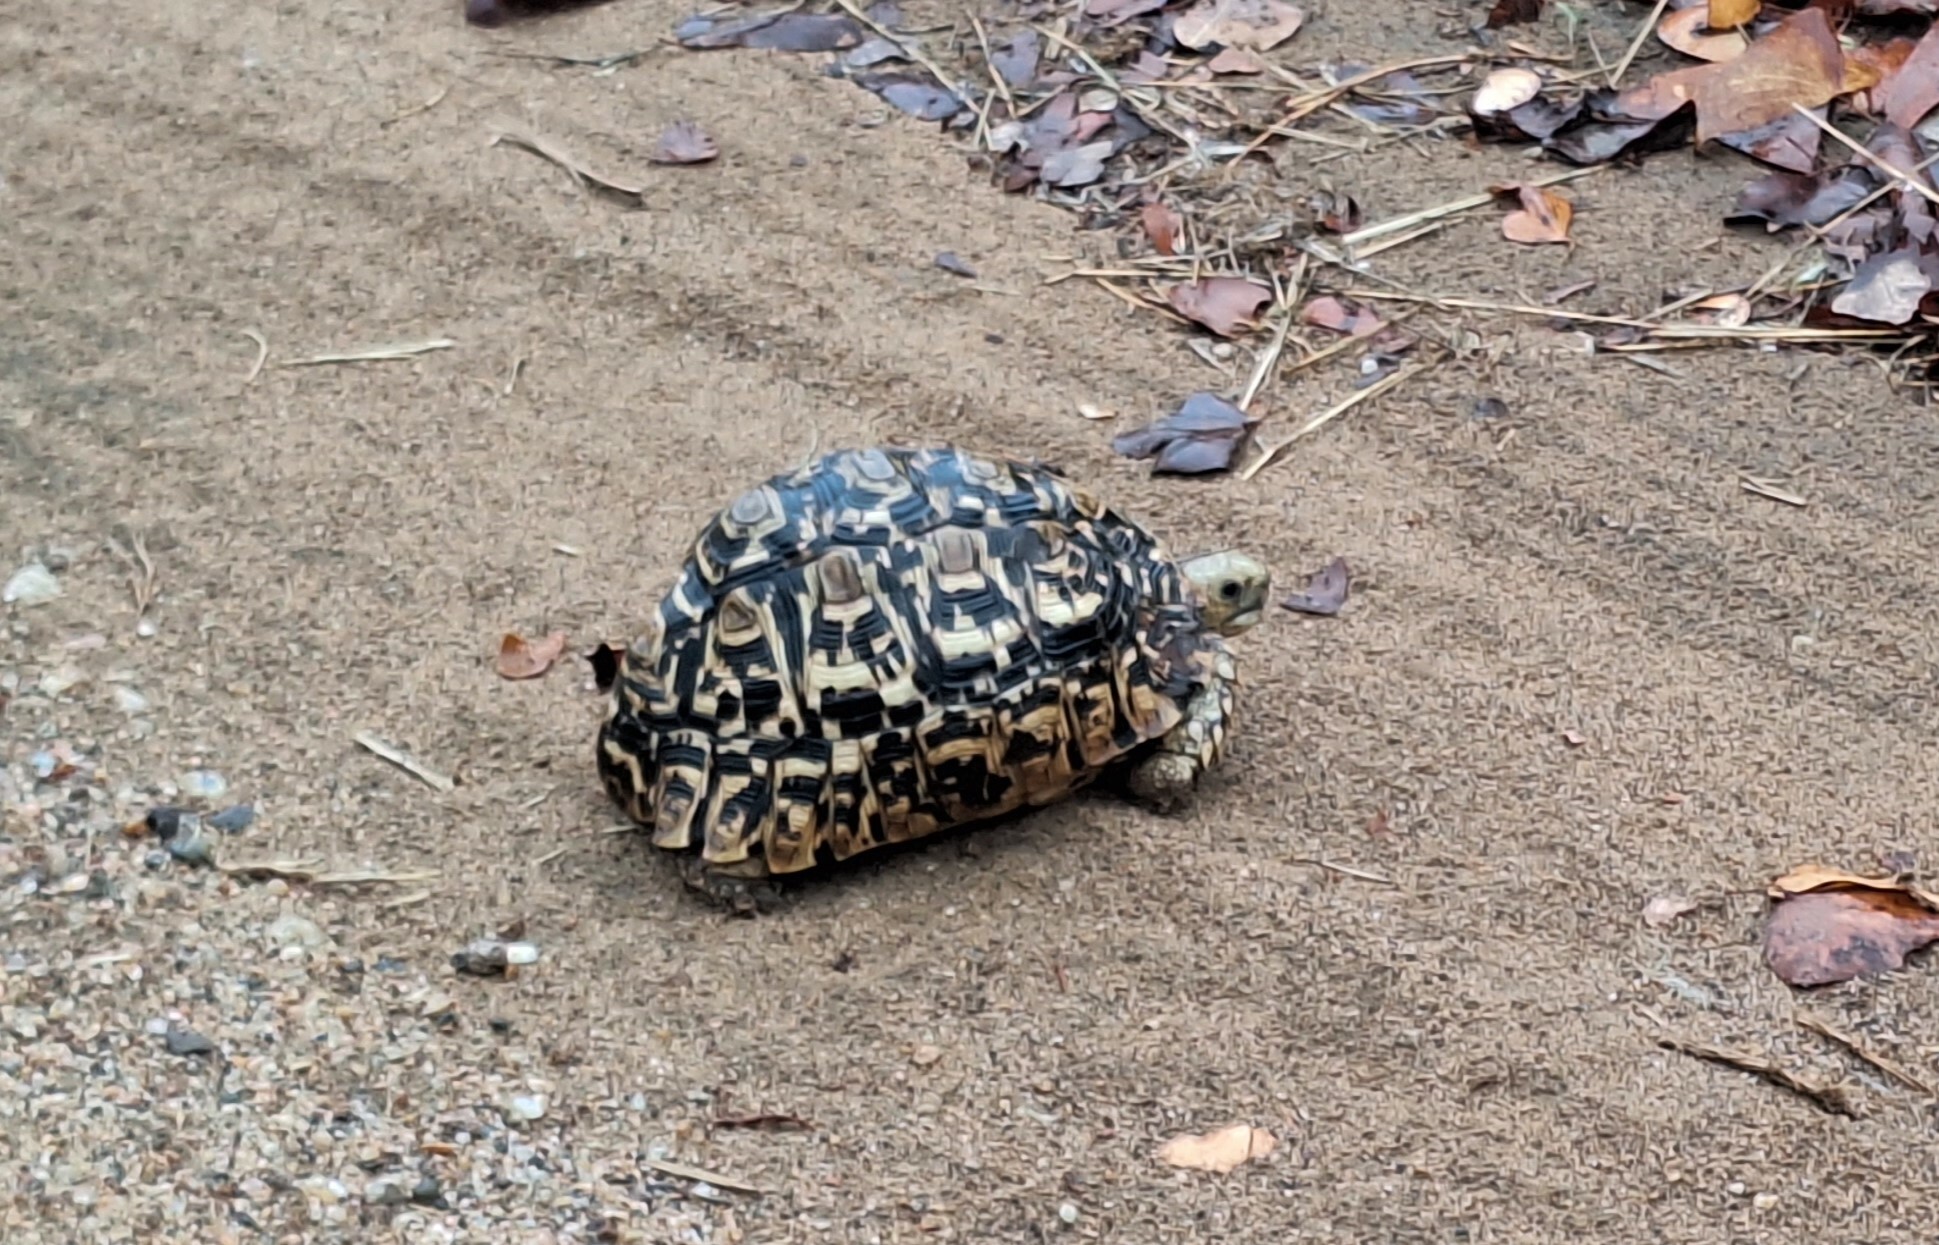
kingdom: Animalia
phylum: Chordata
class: Testudines
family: Testudinidae
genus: Stigmochelys
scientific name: Stigmochelys pardalis
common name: Leopard tortoise
